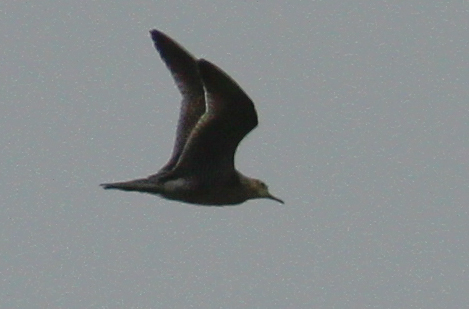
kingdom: Animalia
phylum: Chordata
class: Aves
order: Charadriiformes
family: Scolopacidae
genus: Bartramia
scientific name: Bartramia longicauda
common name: Upland sandpiper
